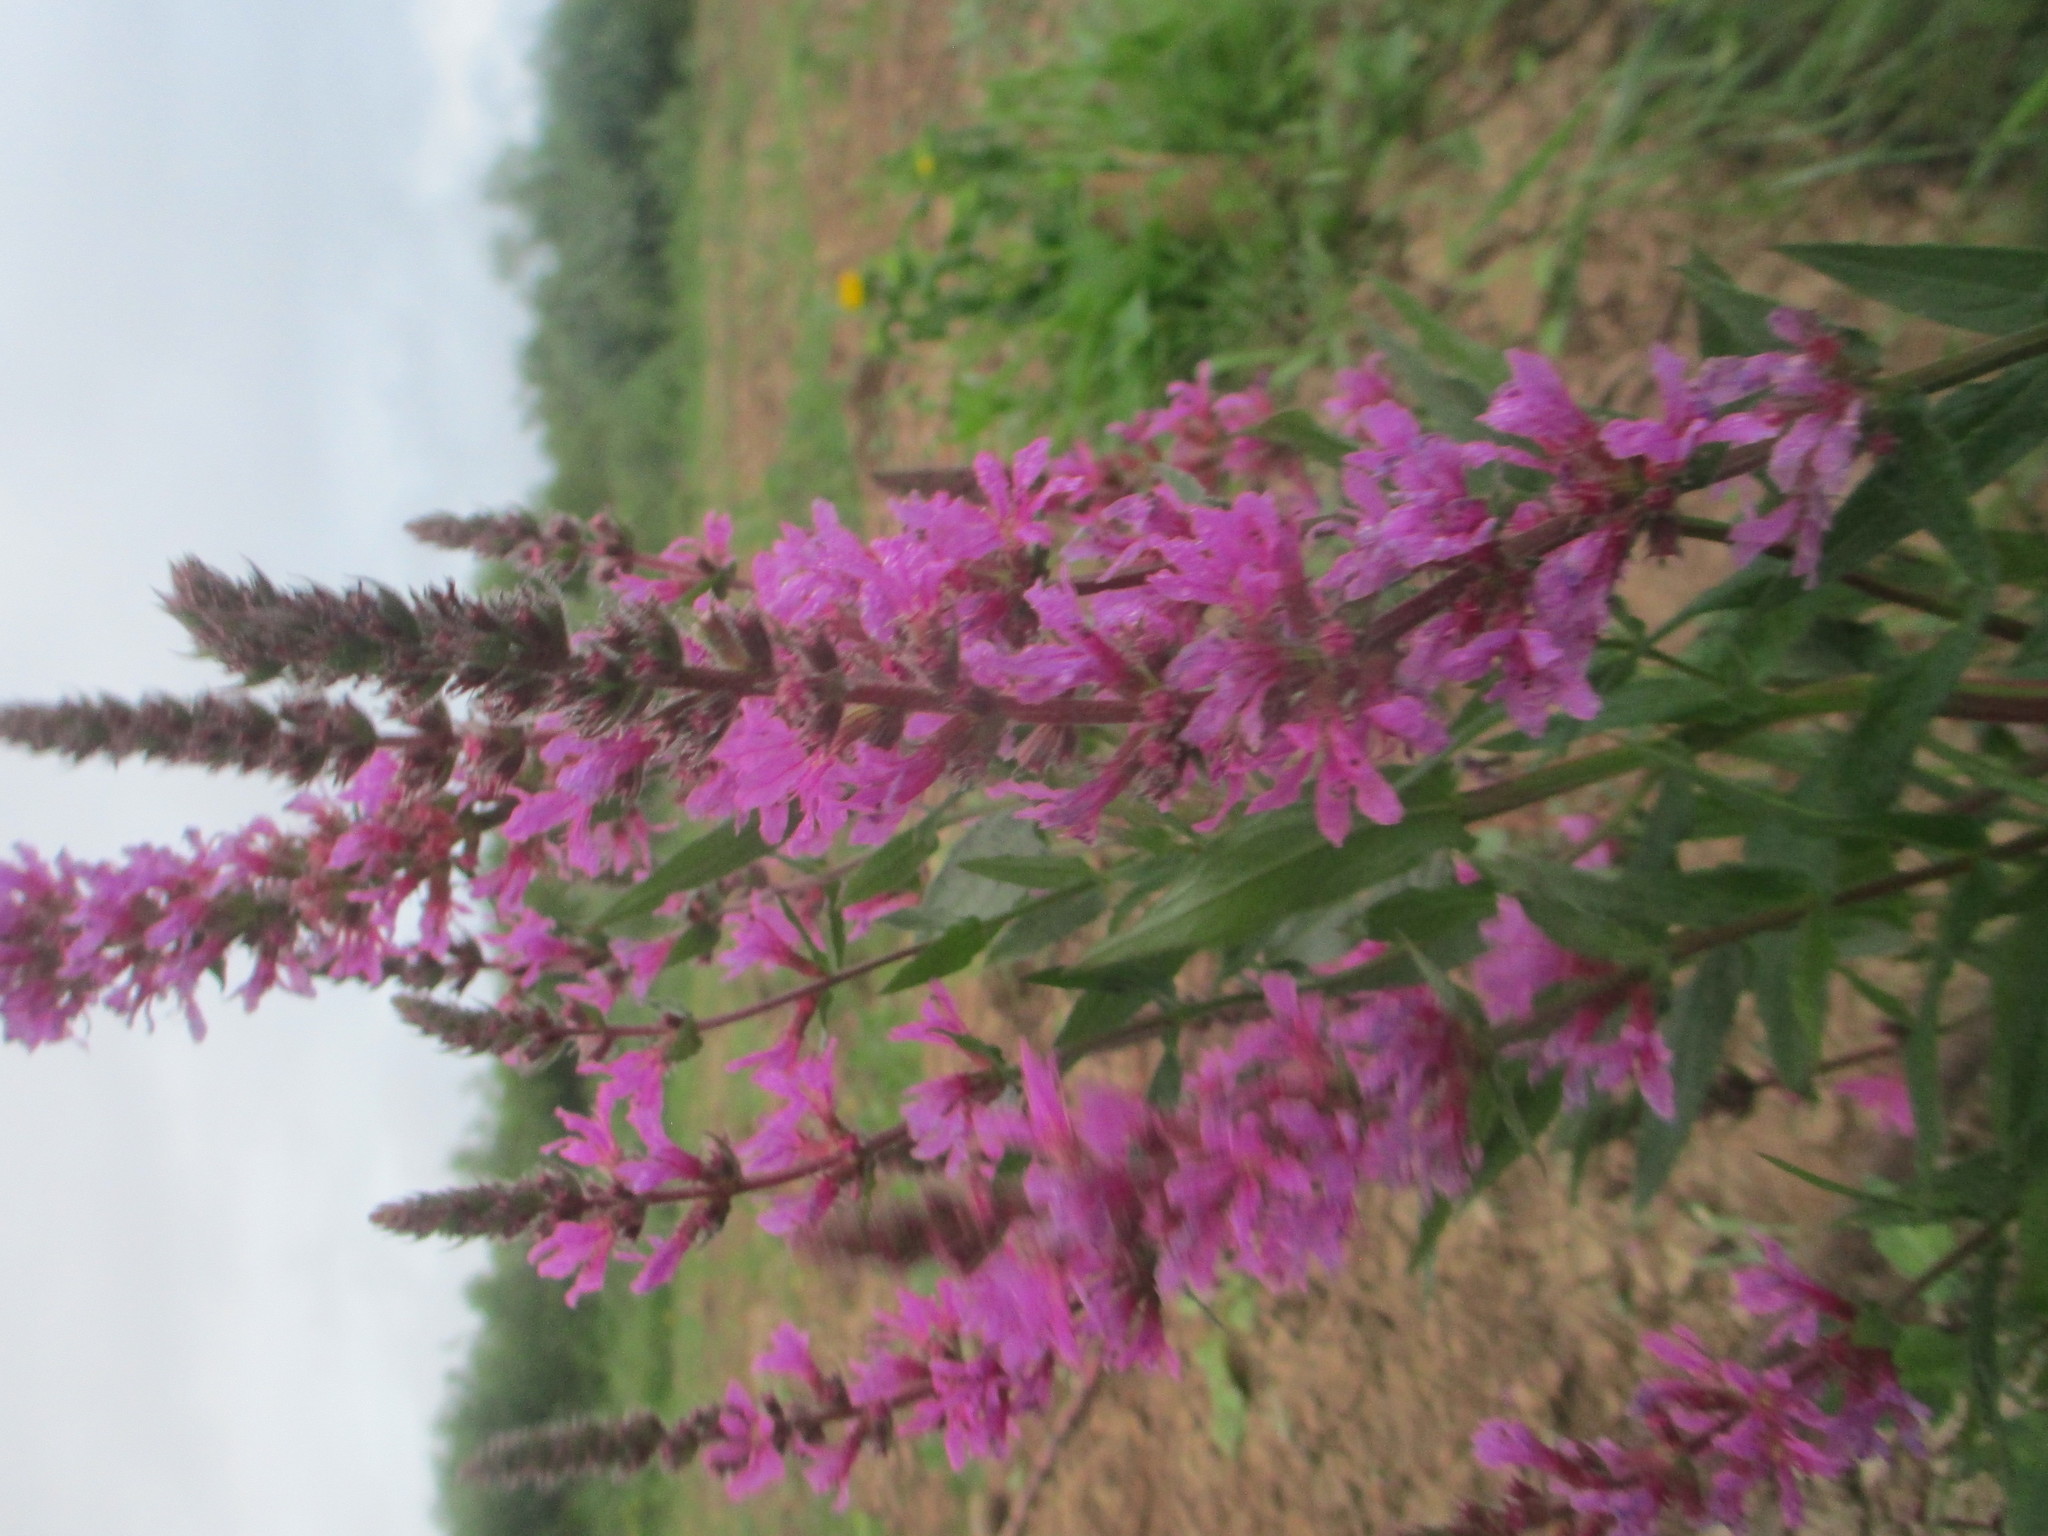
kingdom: Plantae
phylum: Tracheophyta
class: Magnoliopsida
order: Myrtales
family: Lythraceae
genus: Lythrum
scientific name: Lythrum salicaria
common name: Purple loosestrife
